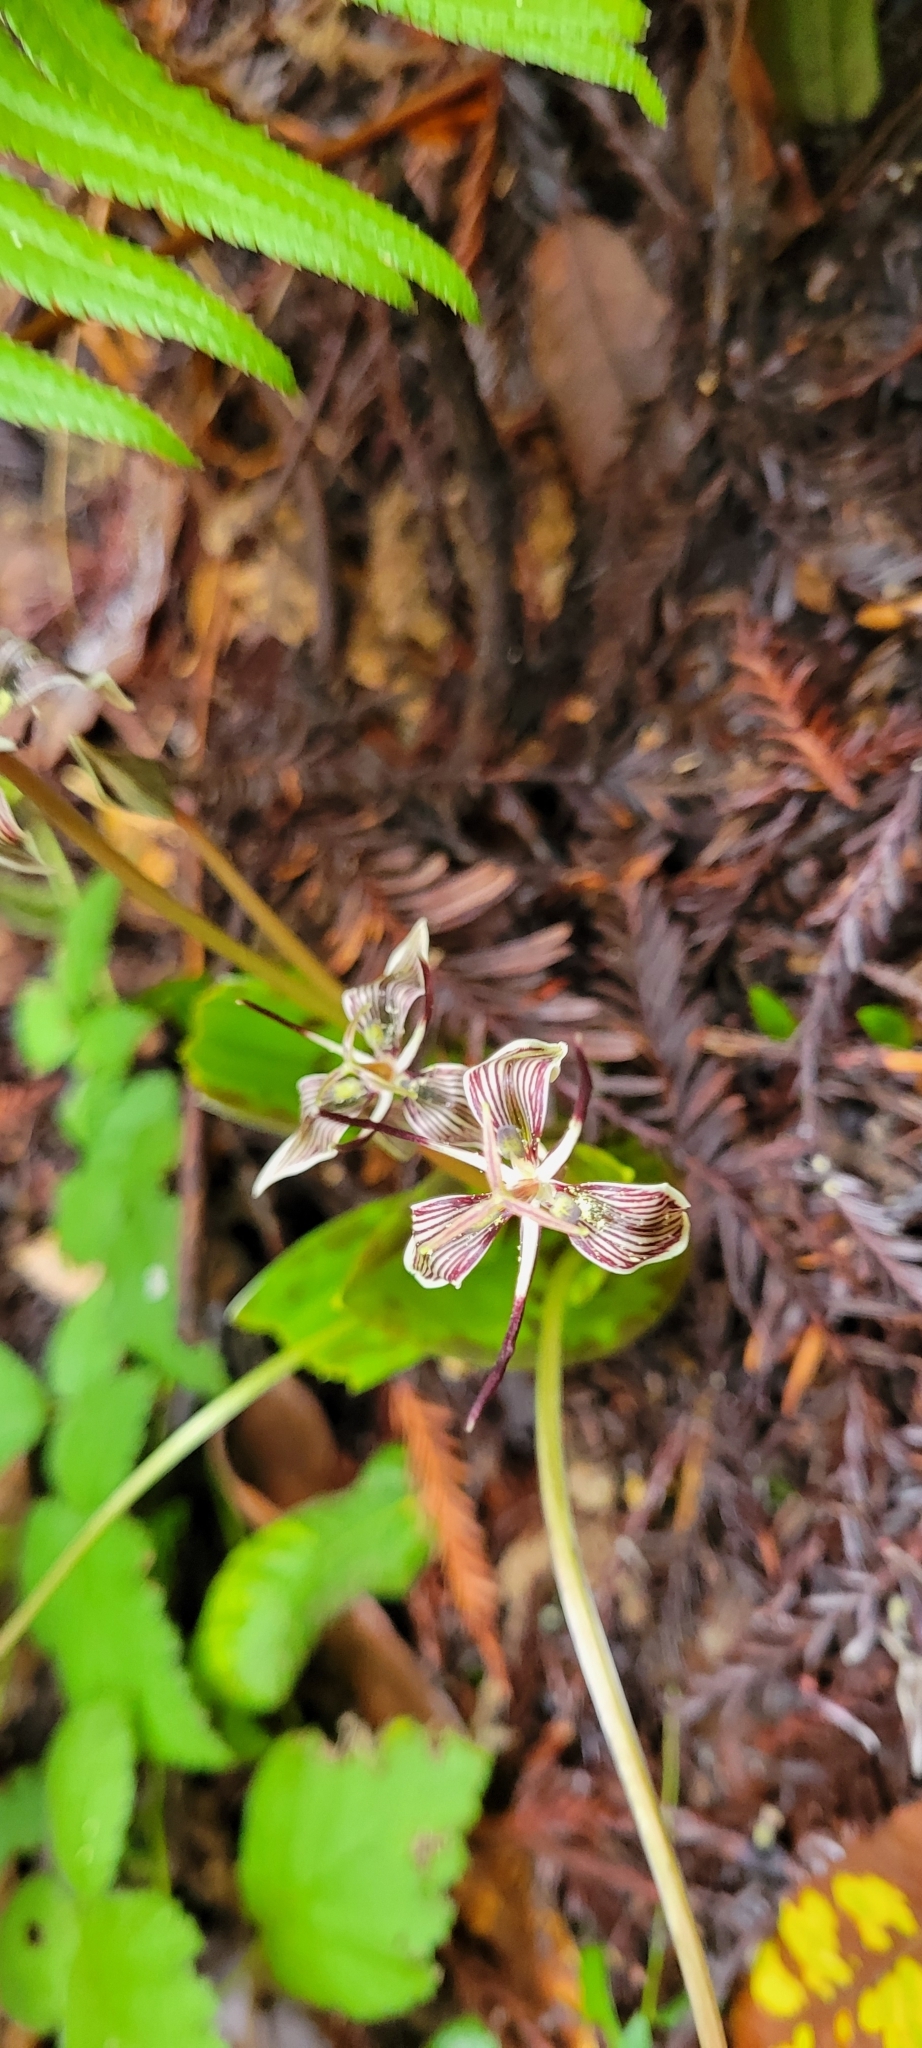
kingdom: Plantae
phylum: Tracheophyta
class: Liliopsida
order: Liliales
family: Liliaceae
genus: Scoliopus
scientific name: Scoliopus bigelovii
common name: Foetid adder's-tongue
